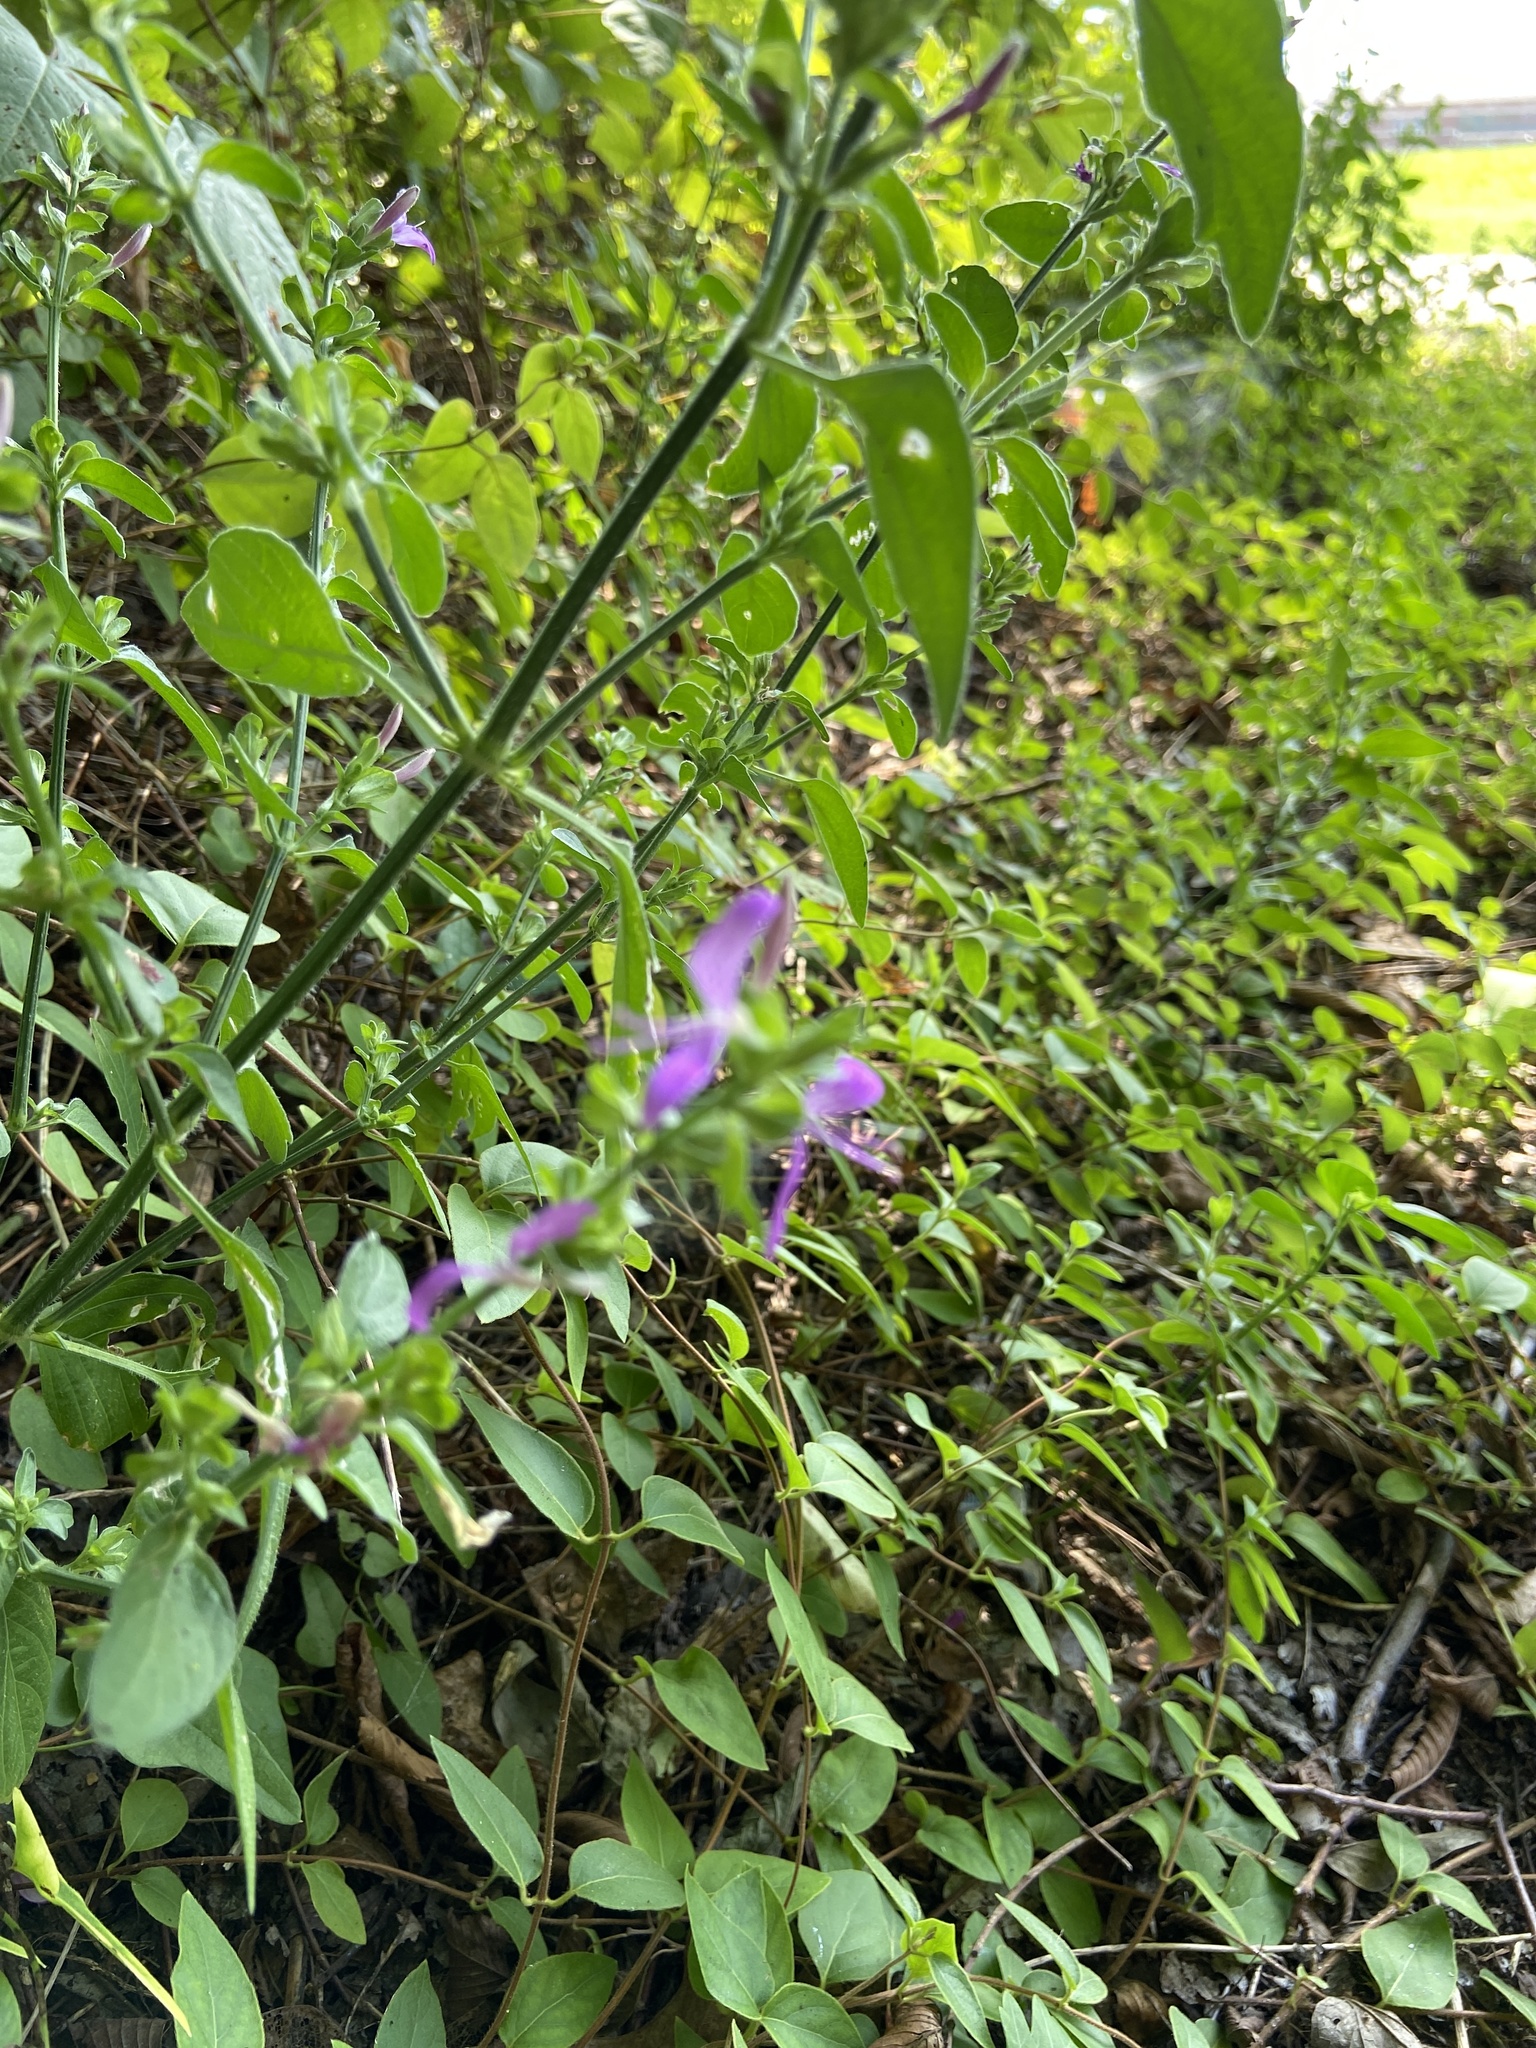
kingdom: Plantae
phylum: Tracheophyta
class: Magnoliopsida
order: Lamiales
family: Acanthaceae
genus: Dicliptera
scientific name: Dicliptera brachiata
